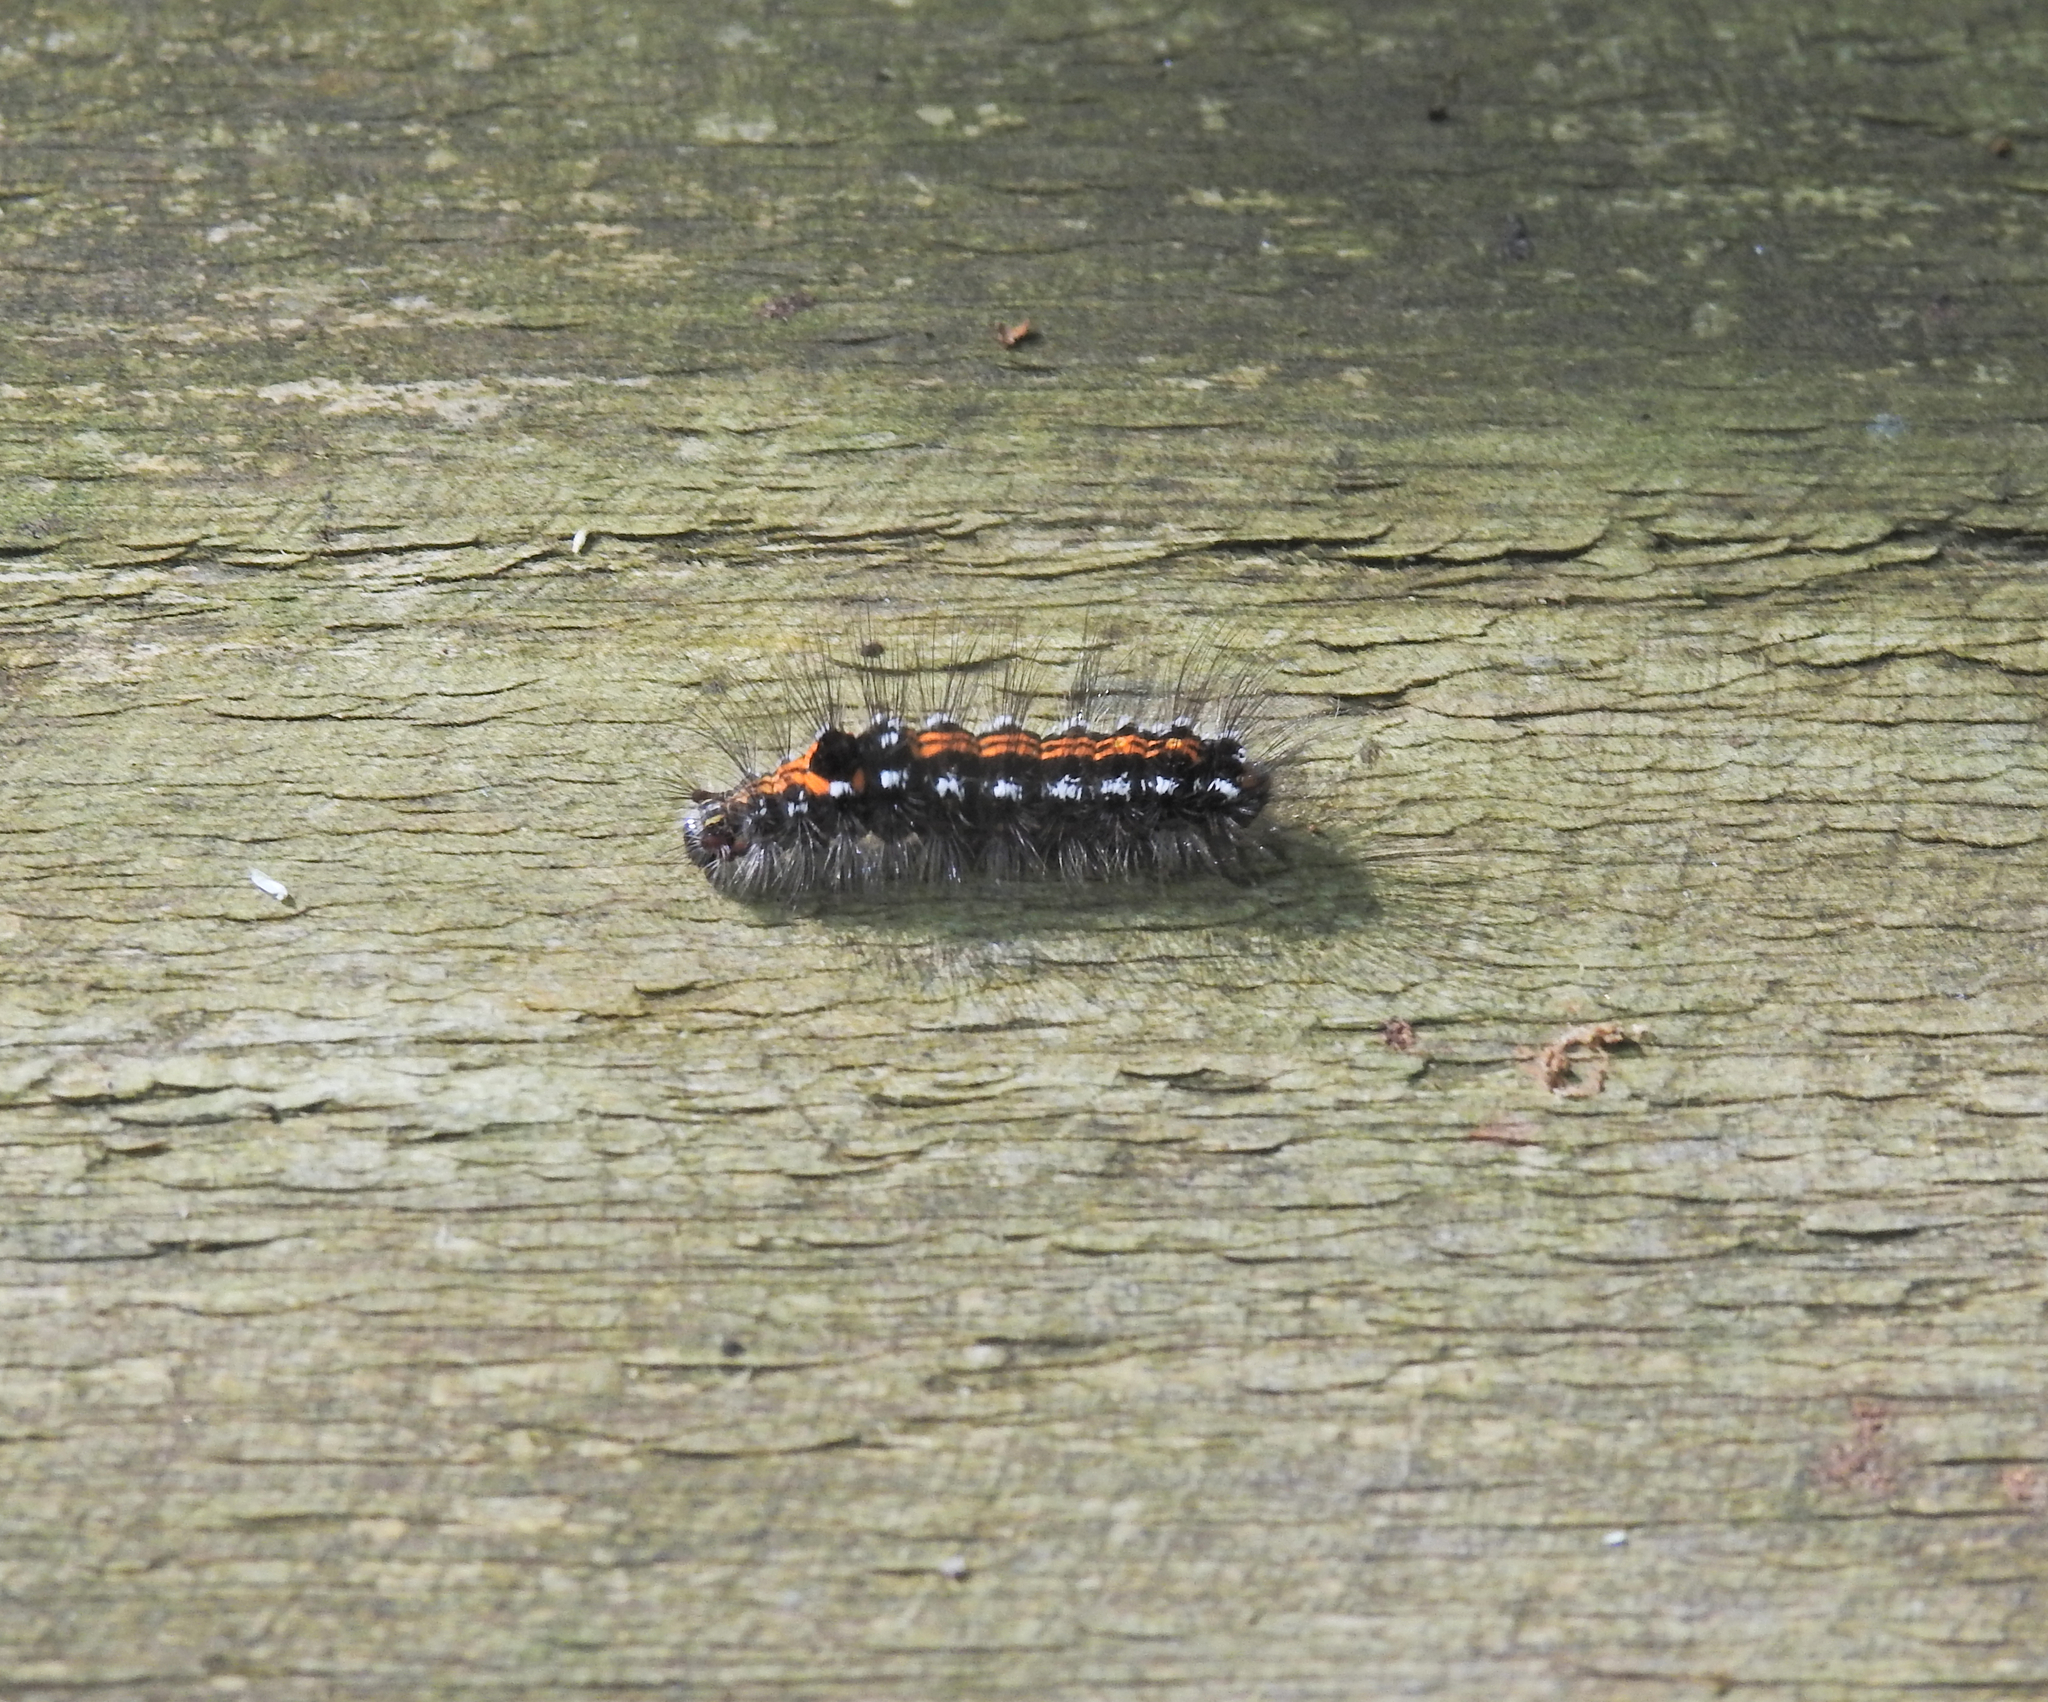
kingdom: Animalia
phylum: Arthropoda
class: Insecta
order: Lepidoptera
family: Erebidae
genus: Sphrageidus
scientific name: Sphrageidus similis
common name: Yellow-tail
